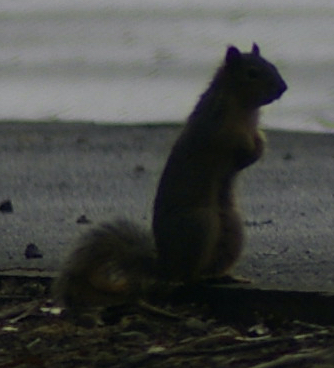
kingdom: Animalia
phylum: Chordata
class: Mammalia
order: Rodentia
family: Sciuridae
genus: Sciurus
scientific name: Sciurus niger
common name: Fox squirrel
